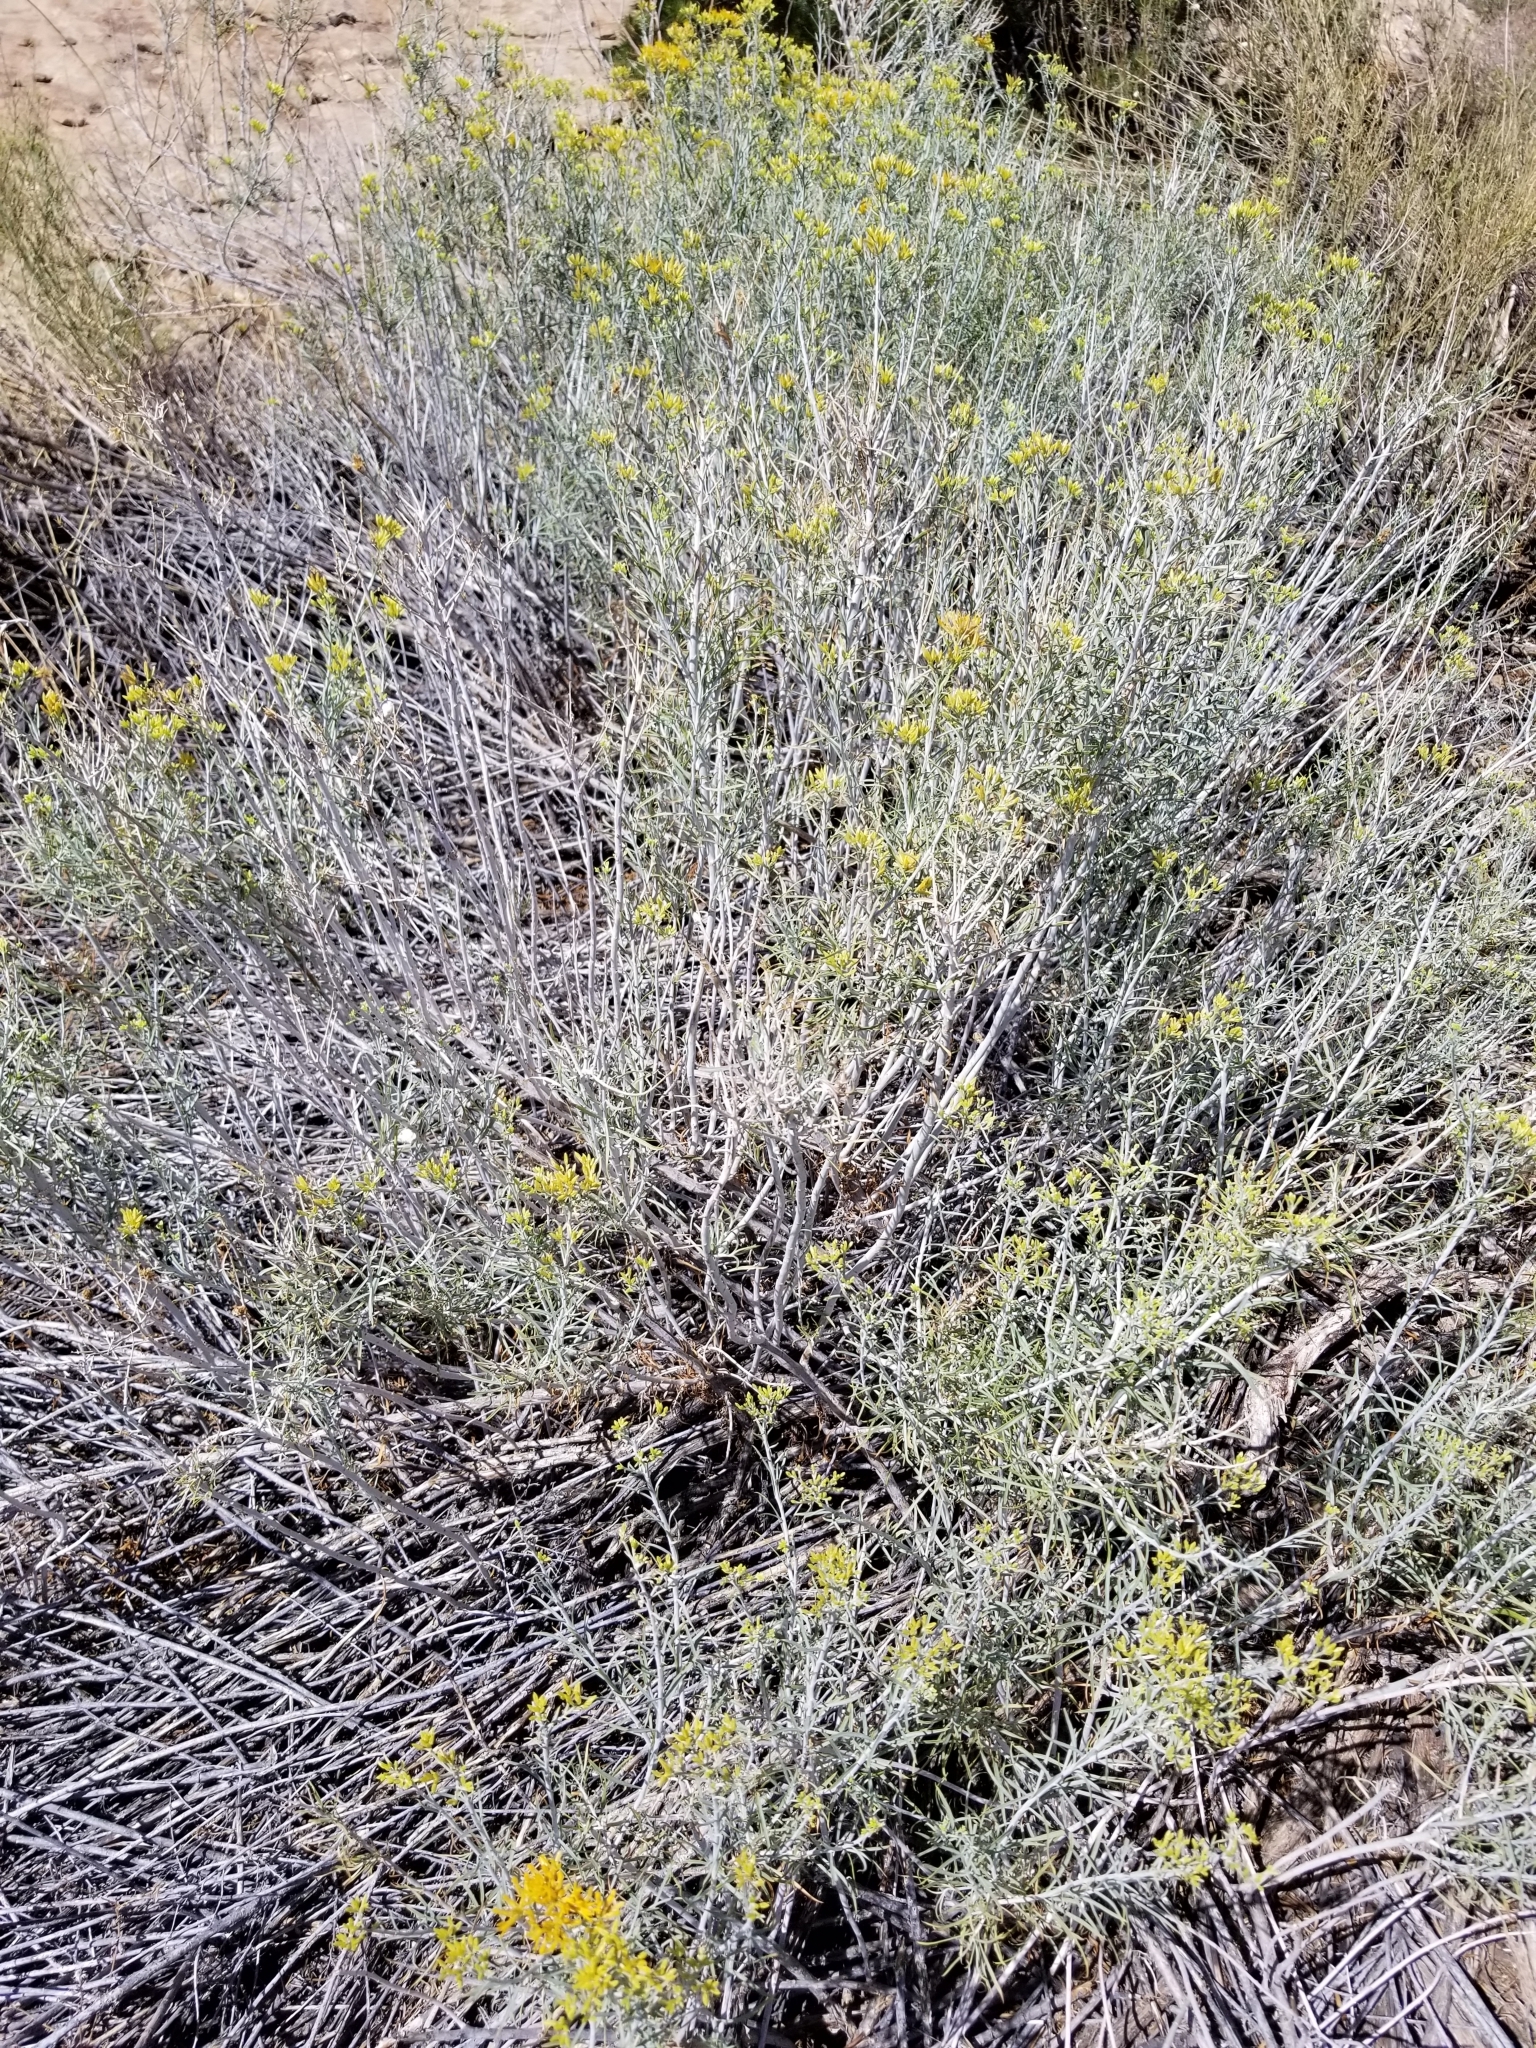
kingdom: Plantae
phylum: Tracheophyta
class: Magnoliopsida
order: Asterales
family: Asteraceae
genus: Ericameria
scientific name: Ericameria nauseosa
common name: Rubber rabbitbrush
